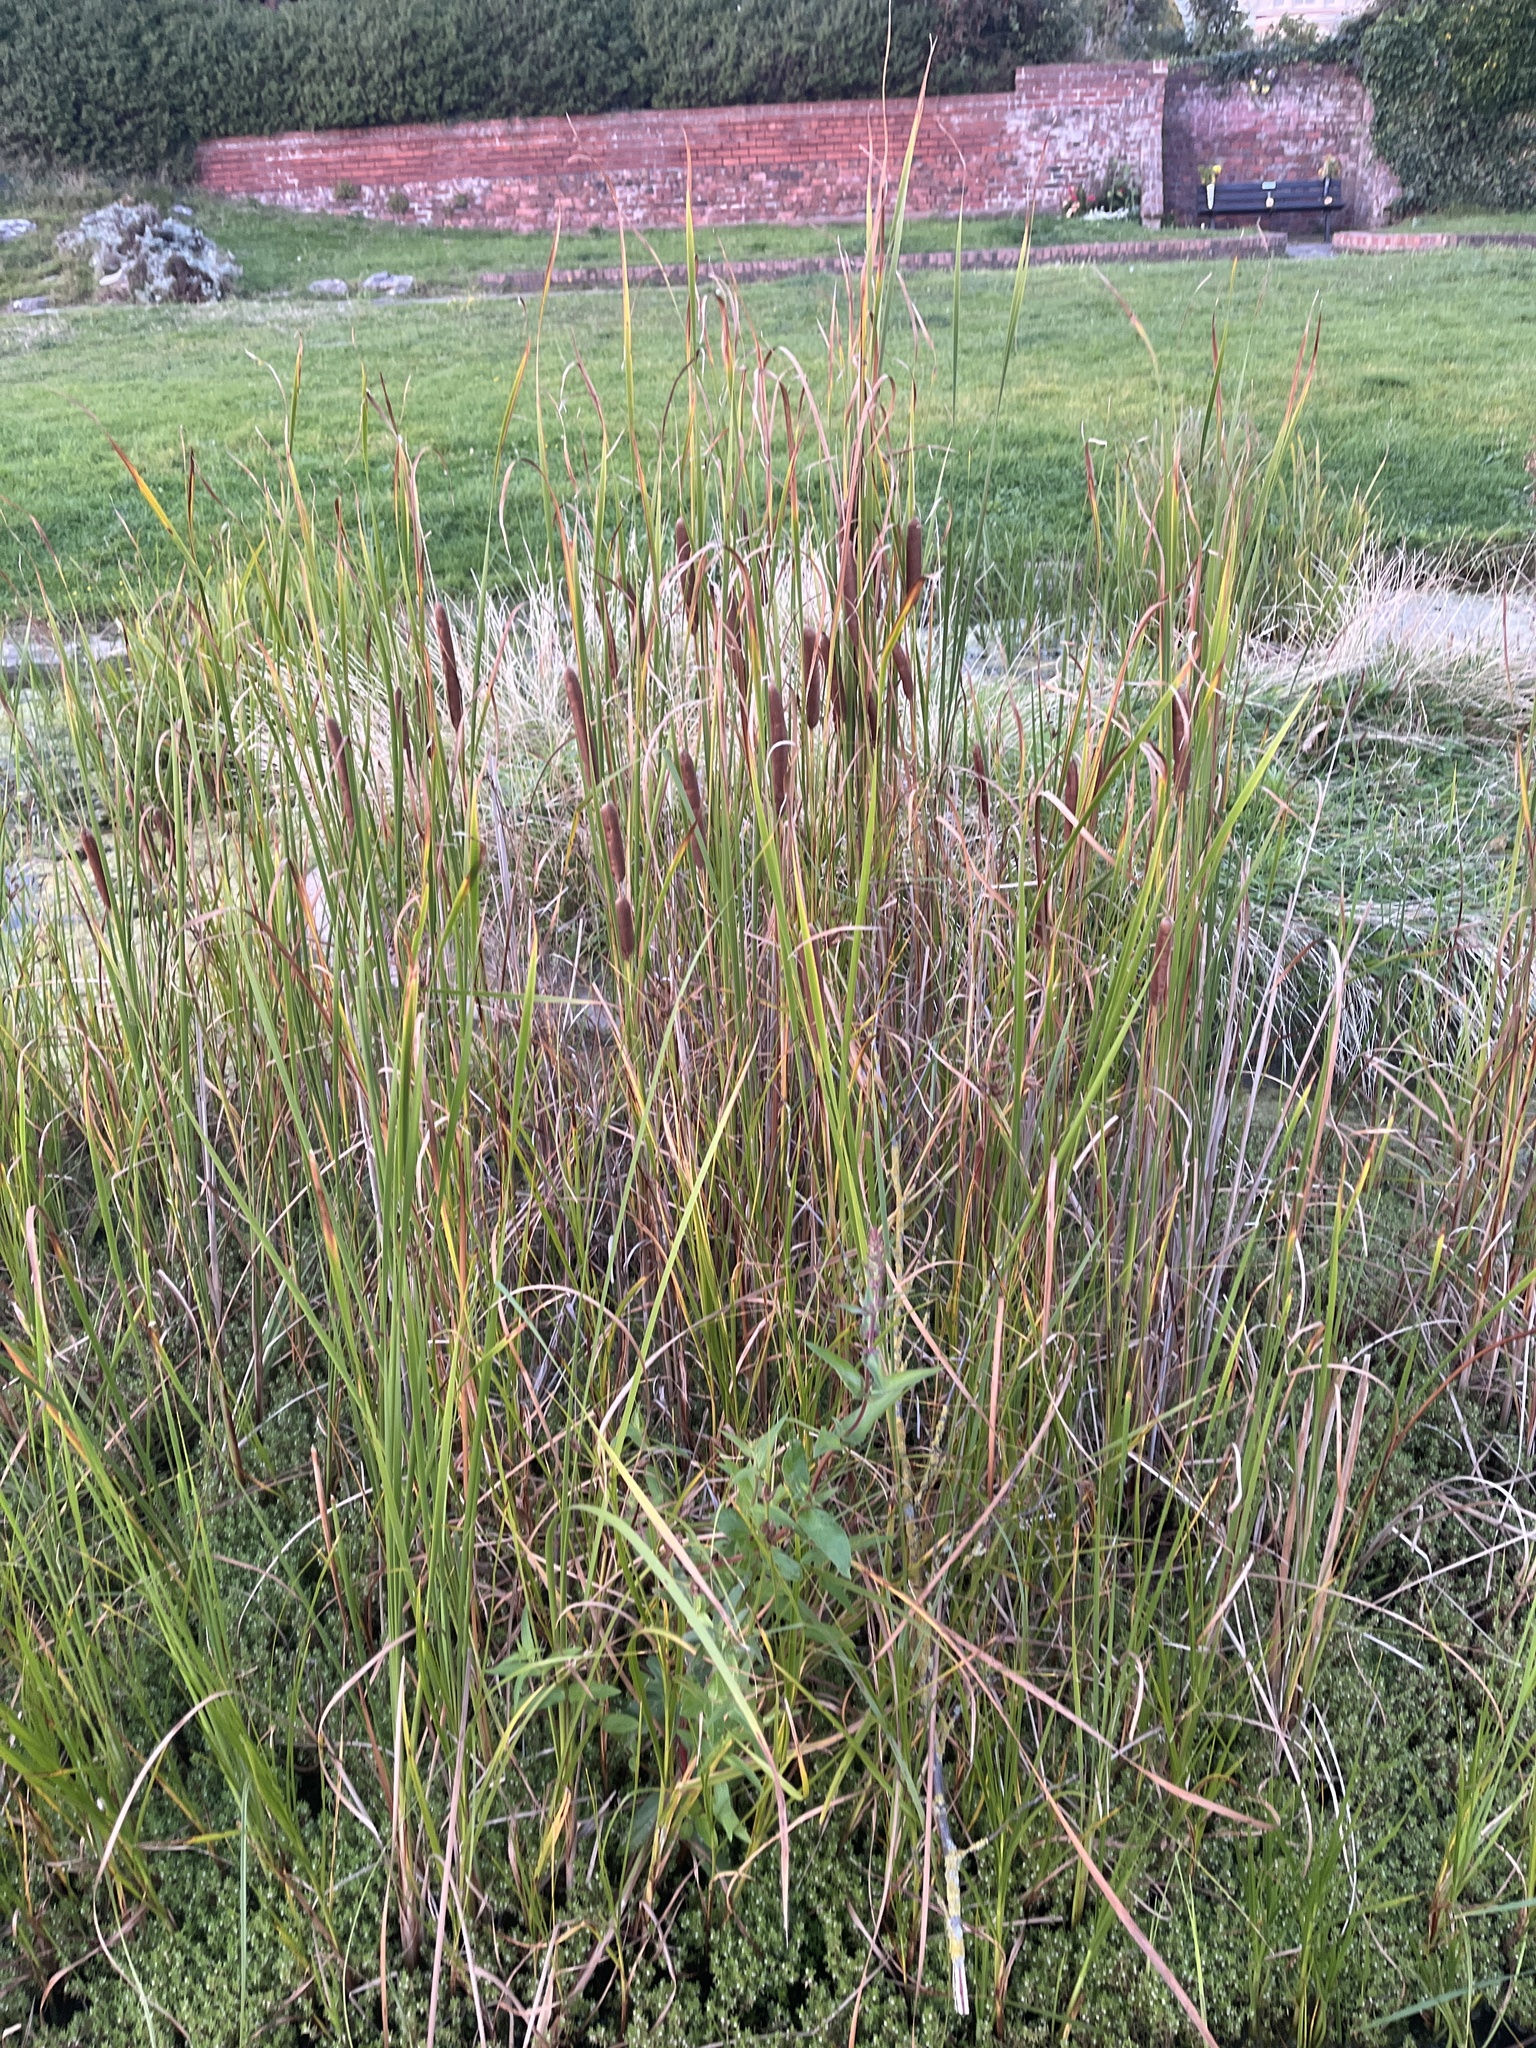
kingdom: Plantae
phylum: Tracheophyta
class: Liliopsida
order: Poales
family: Typhaceae
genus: Typha
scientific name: Typha angustifolia
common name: Lesser bulrush
